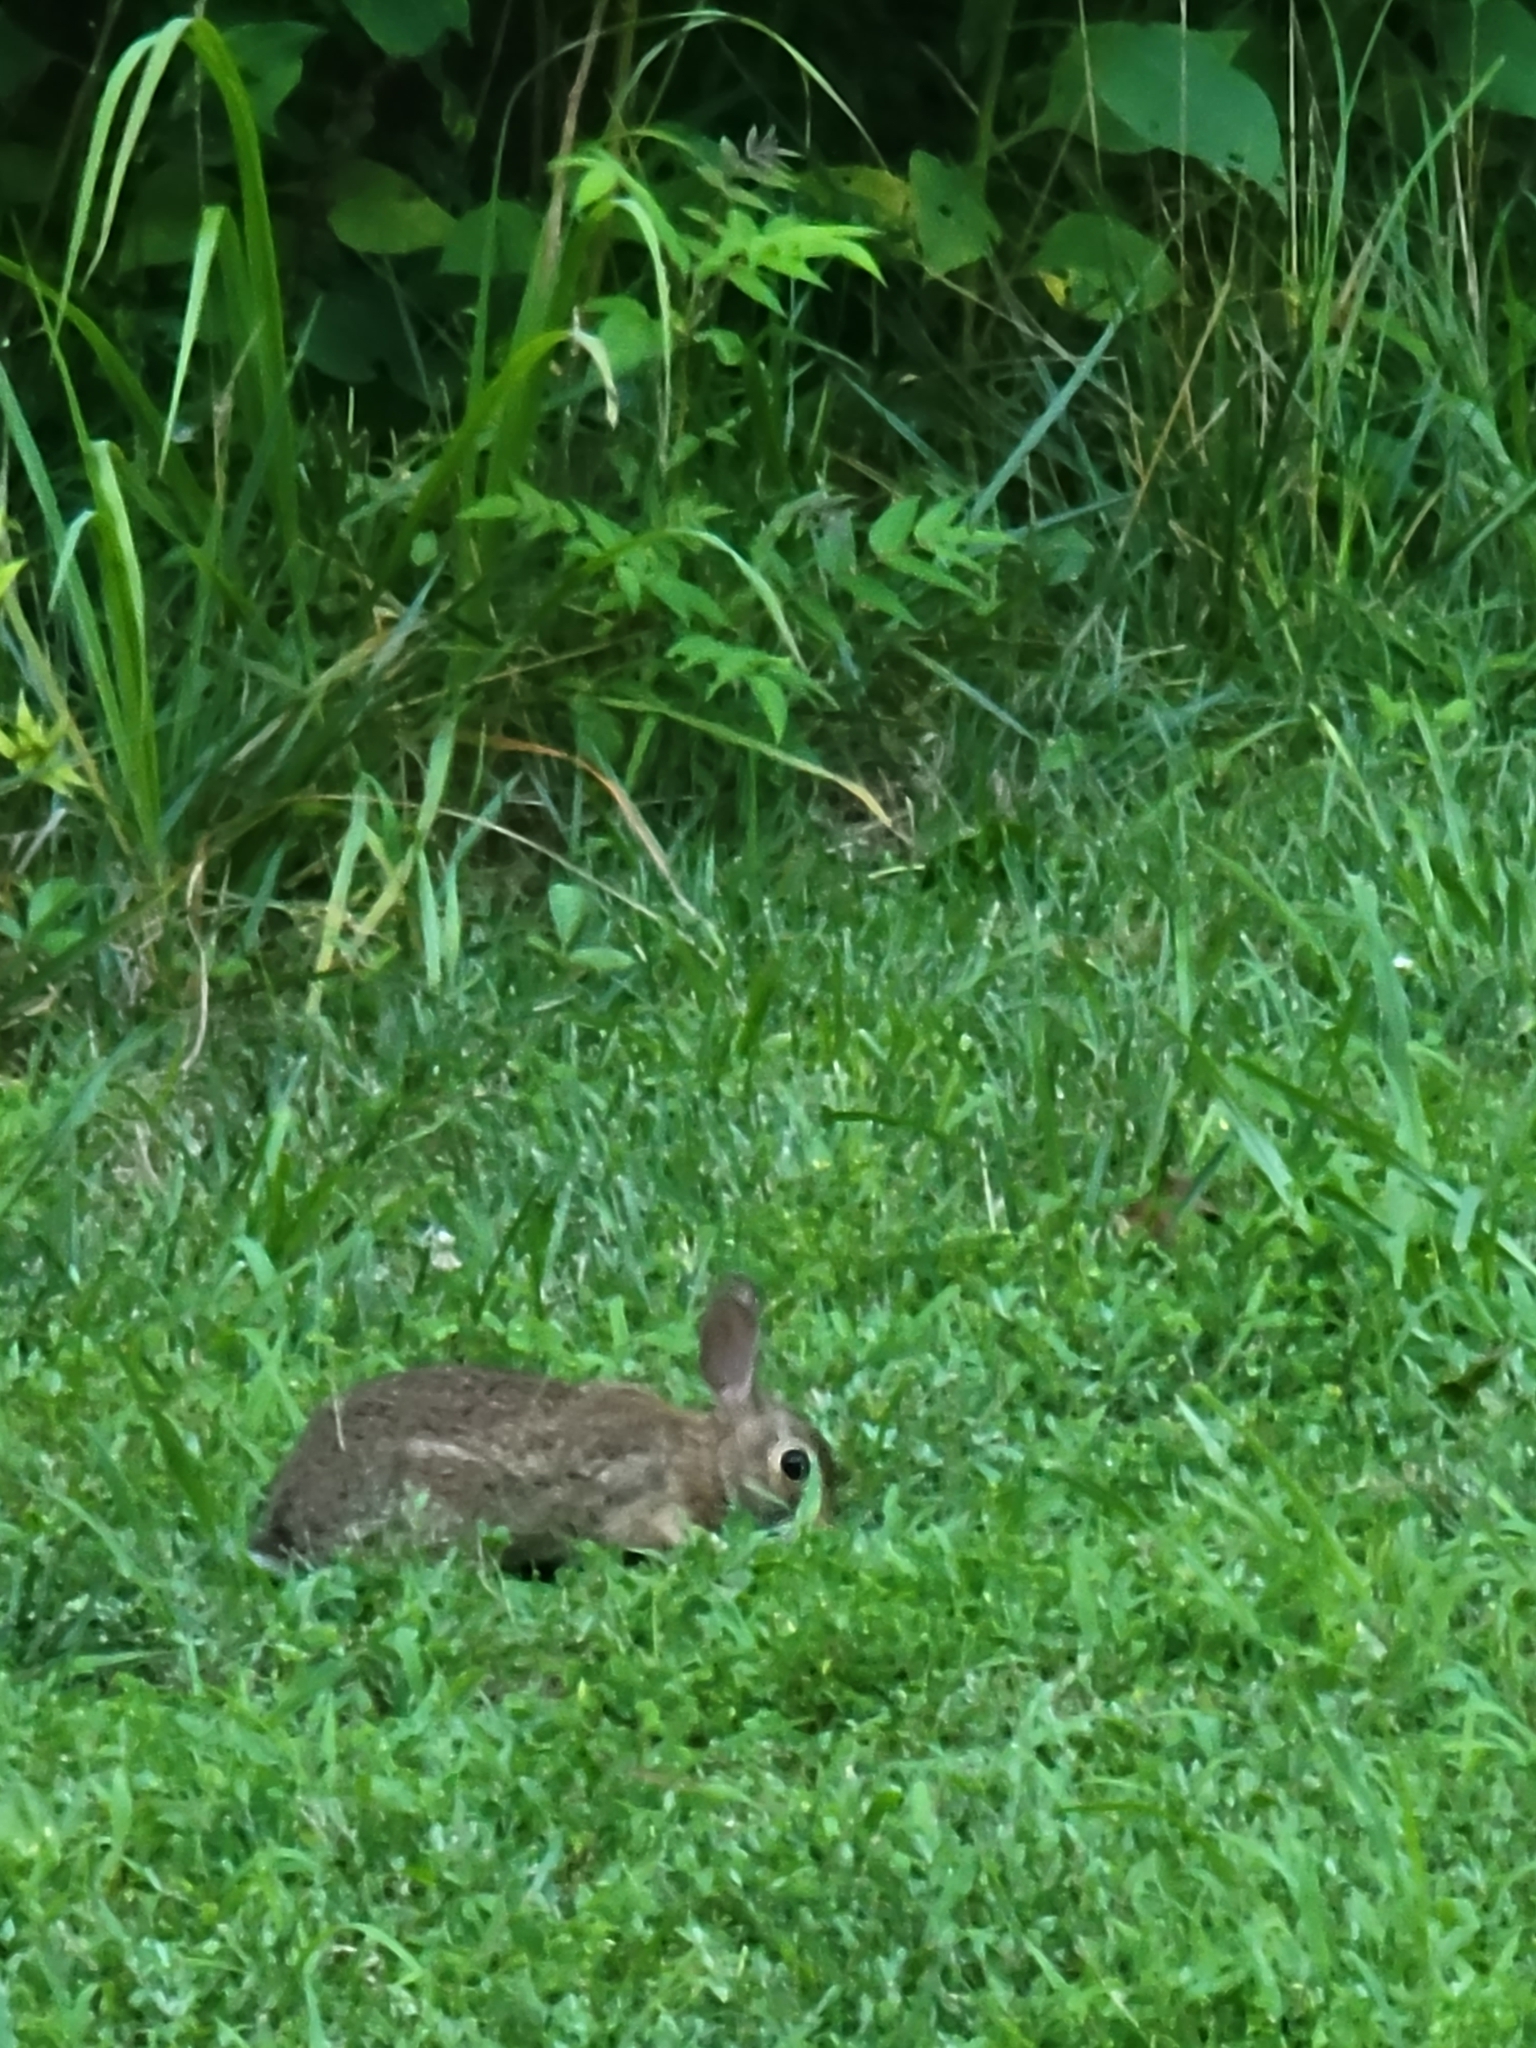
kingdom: Animalia
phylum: Chordata
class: Mammalia
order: Lagomorpha
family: Leporidae
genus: Sylvilagus
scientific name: Sylvilagus floridanus
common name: Eastern cottontail
